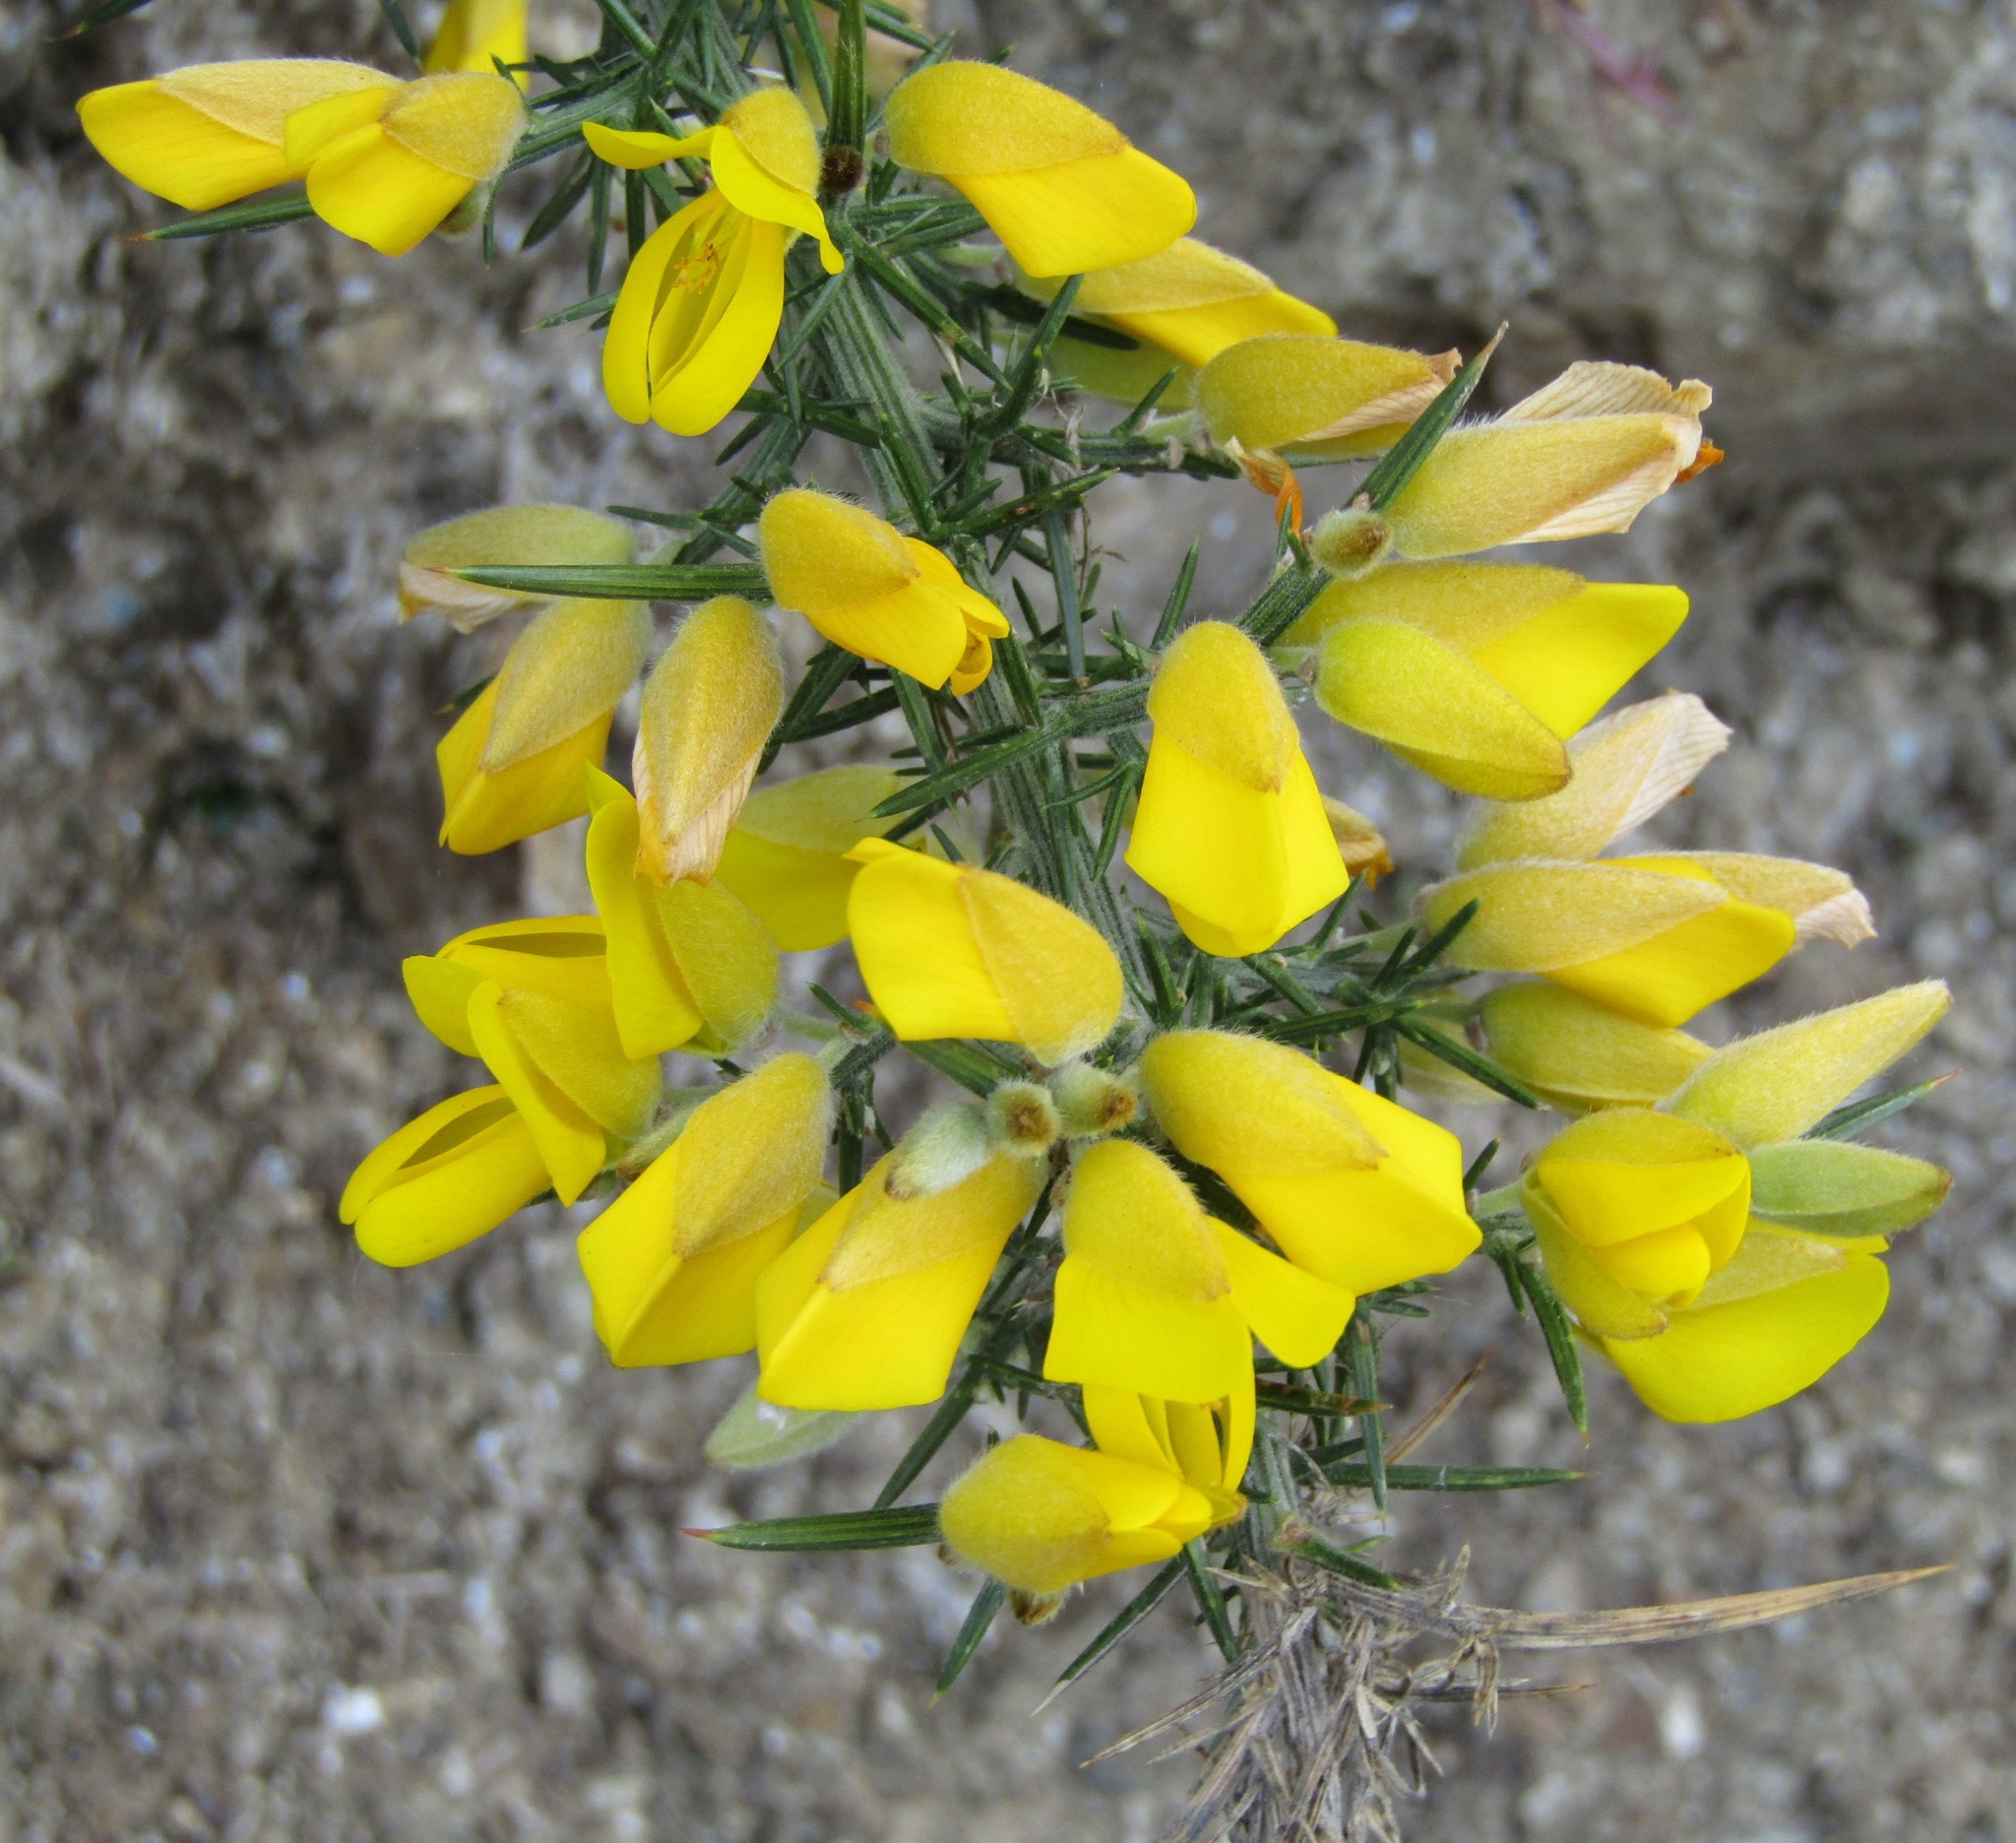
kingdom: Plantae
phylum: Tracheophyta
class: Magnoliopsida
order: Fabales
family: Fabaceae
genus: Ulex
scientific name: Ulex europaeus
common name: Common gorse
